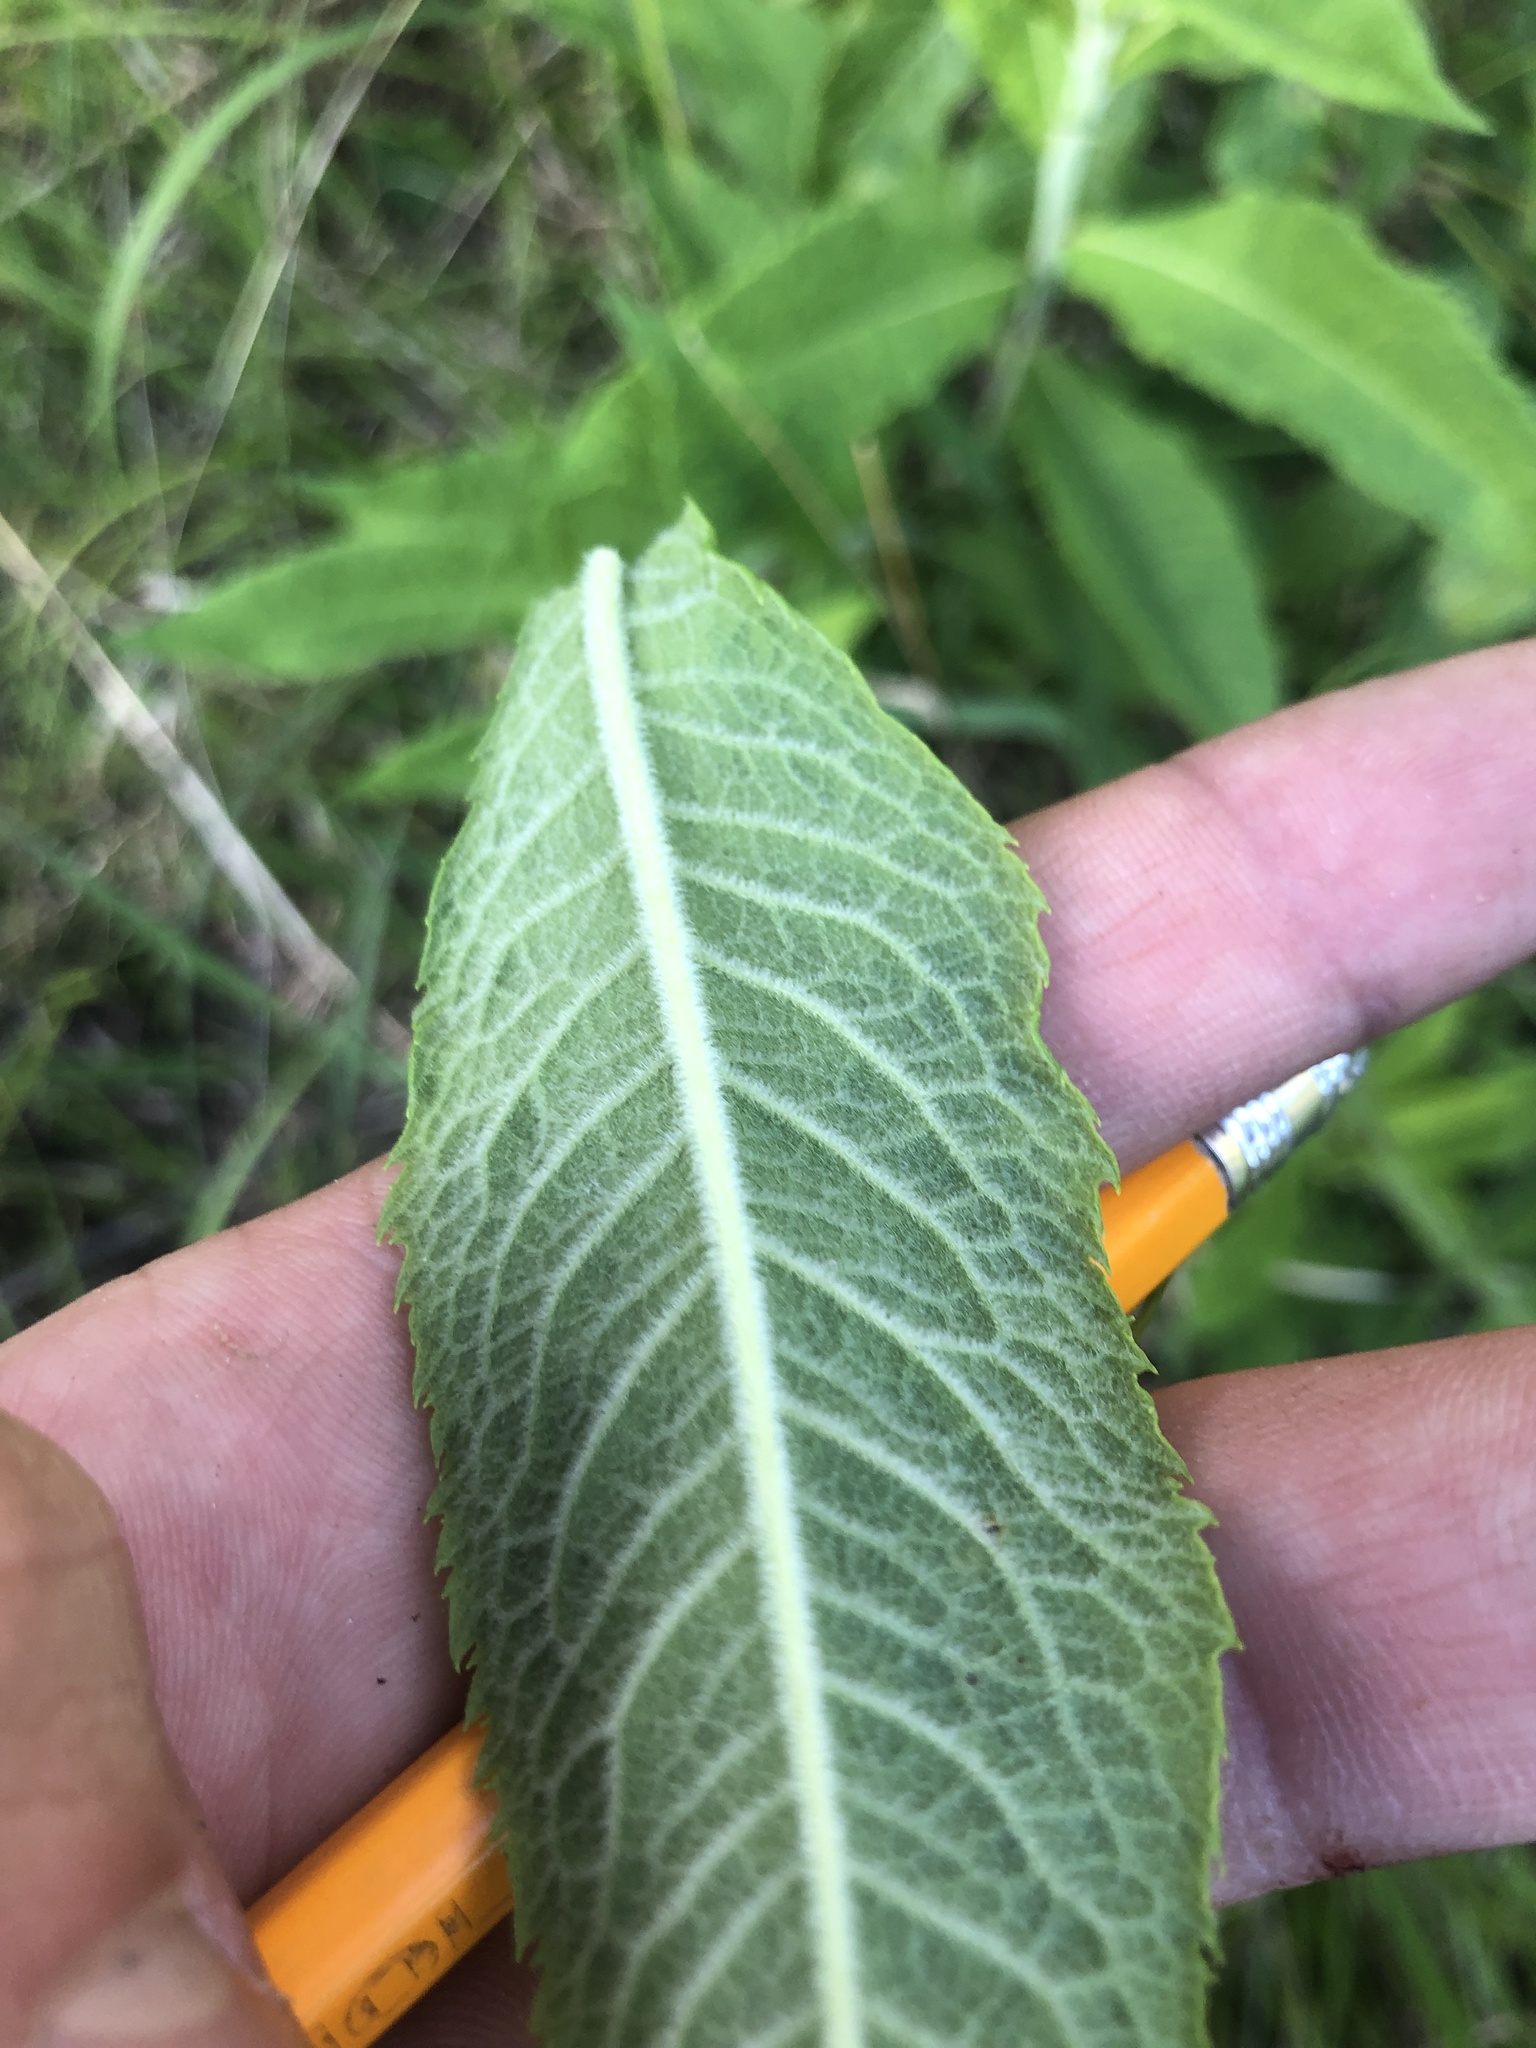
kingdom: Plantae
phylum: Tracheophyta
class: Magnoliopsida
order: Asterales
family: Asteraceae
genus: Vernonia
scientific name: Vernonia missurica
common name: Missouri ironweed
